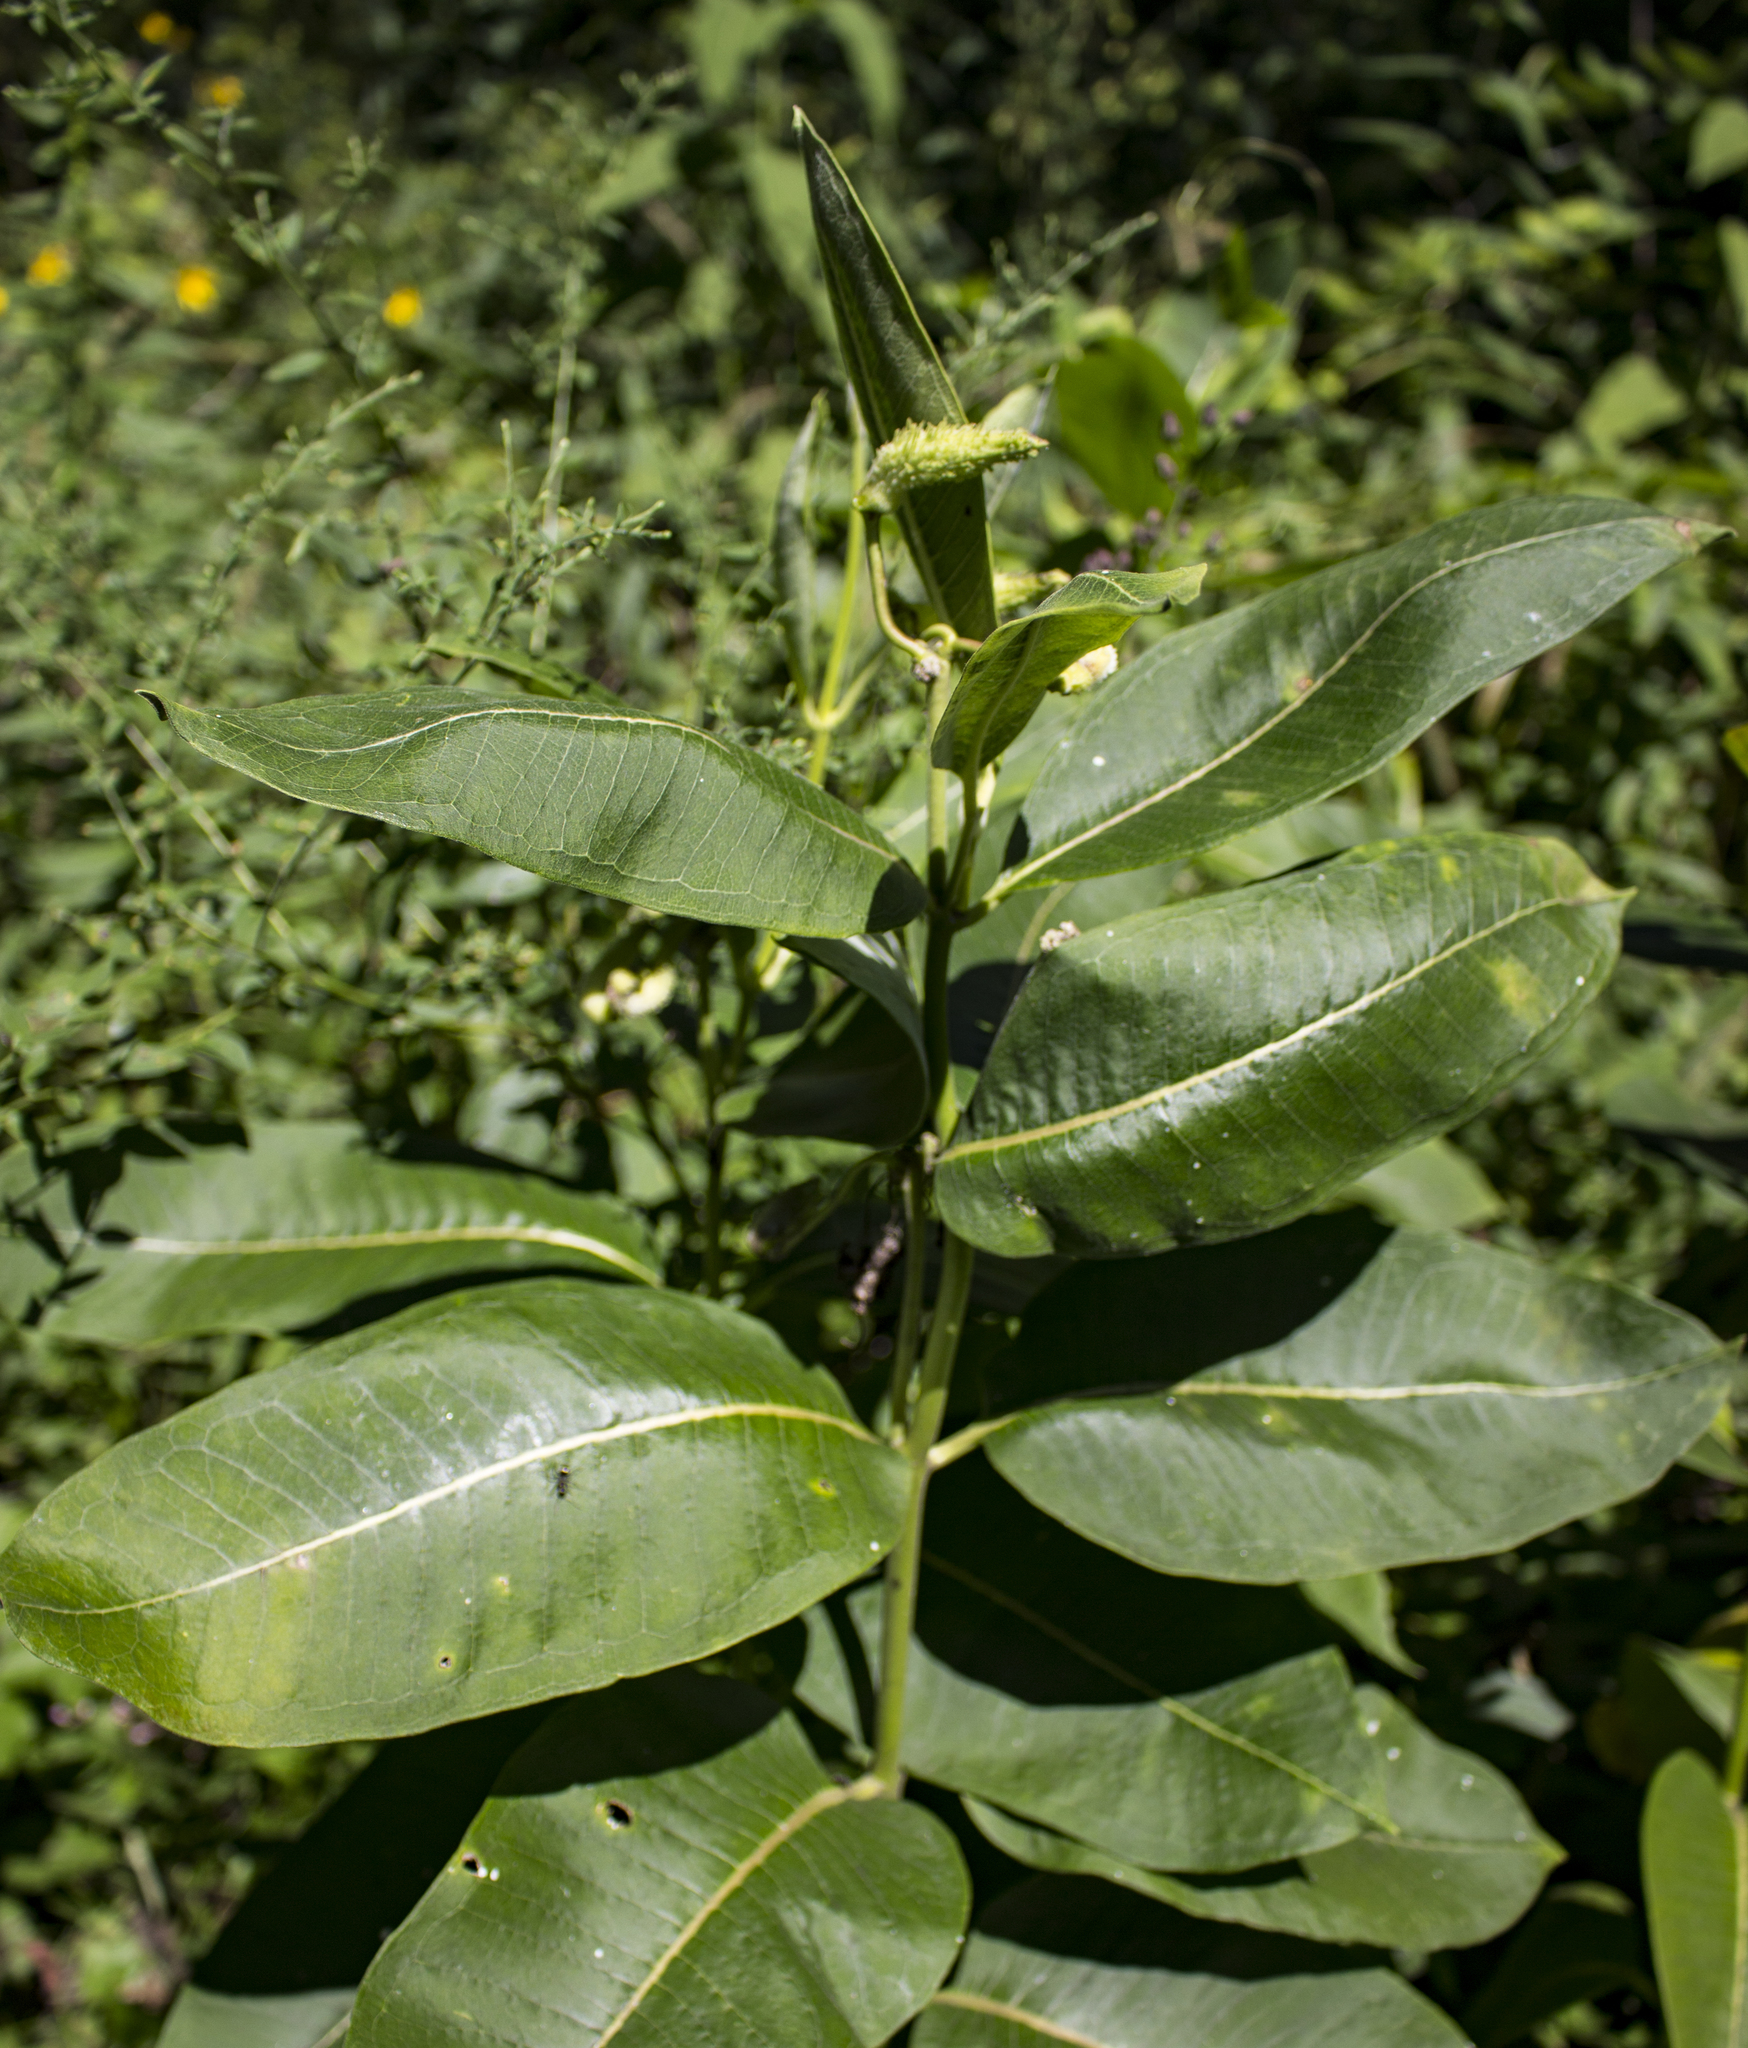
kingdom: Plantae
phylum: Tracheophyta
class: Magnoliopsida
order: Gentianales
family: Apocynaceae
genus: Asclepias
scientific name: Asclepias syriaca
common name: Common milkweed
